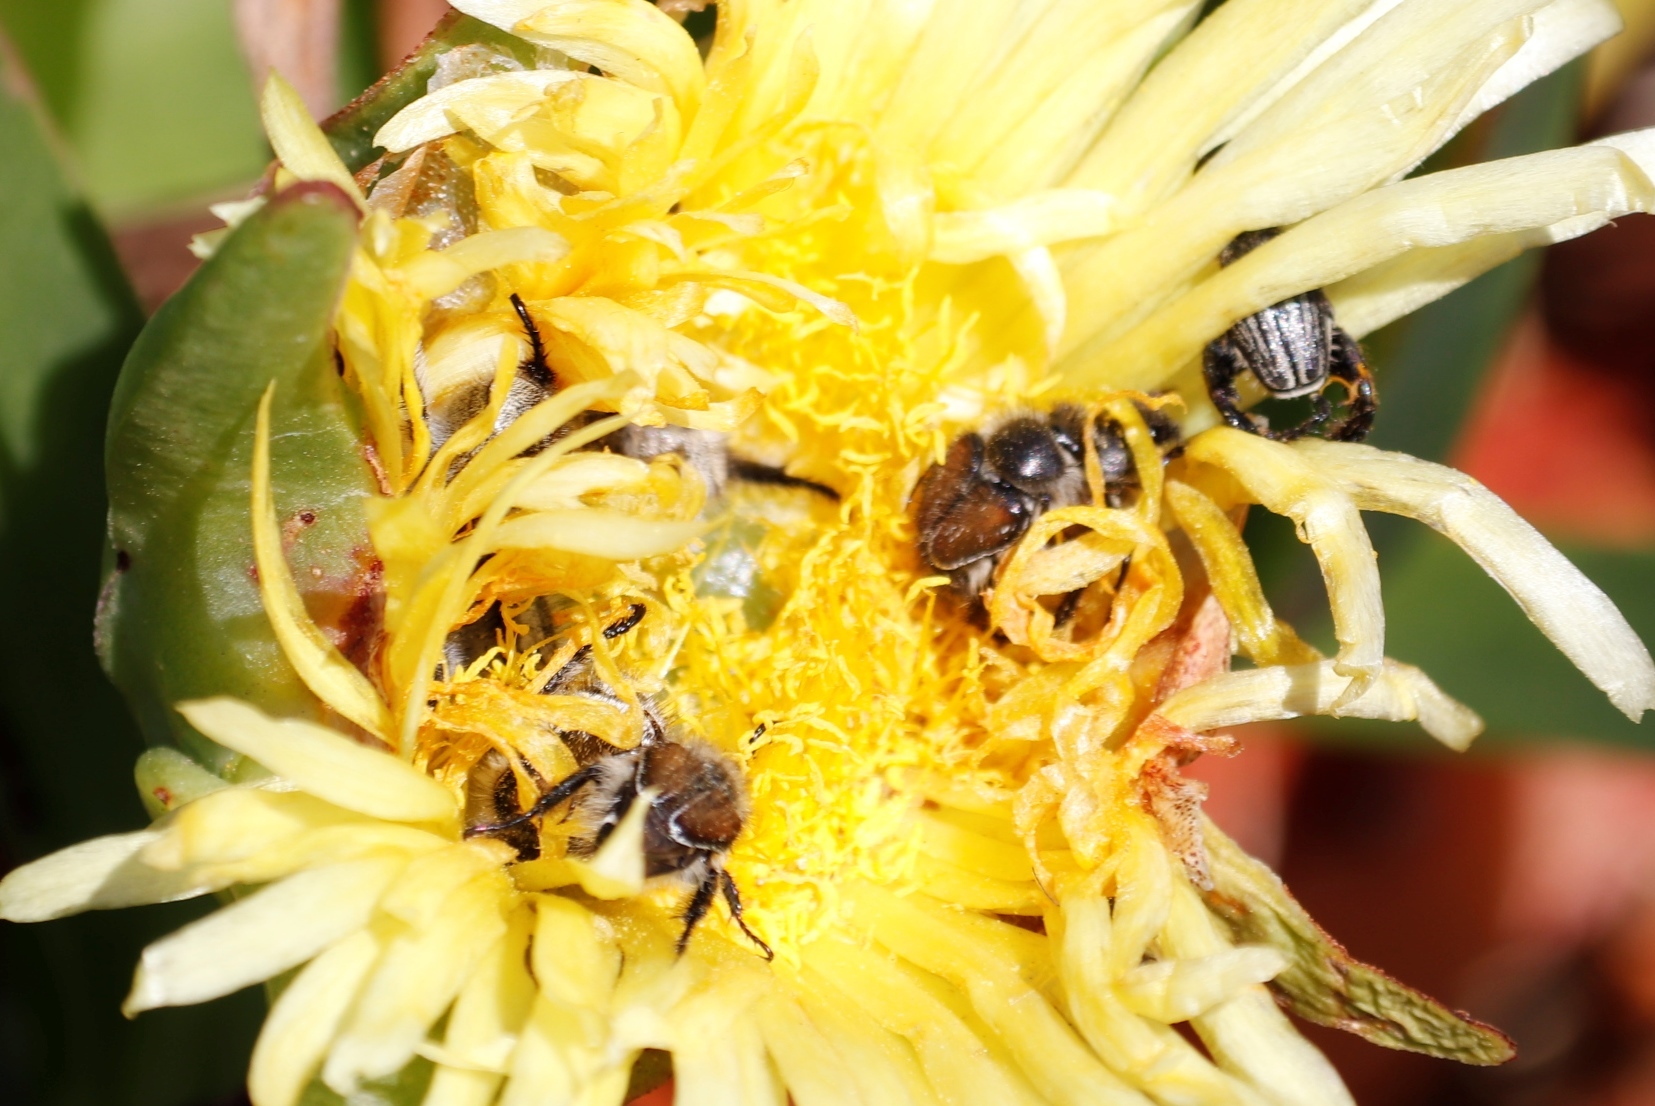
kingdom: Plantae
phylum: Tracheophyta
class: Magnoliopsida
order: Caryophyllales
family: Aizoaceae
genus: Carpobrotus
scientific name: Carpobrotus edulis
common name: Hottentot-fig
